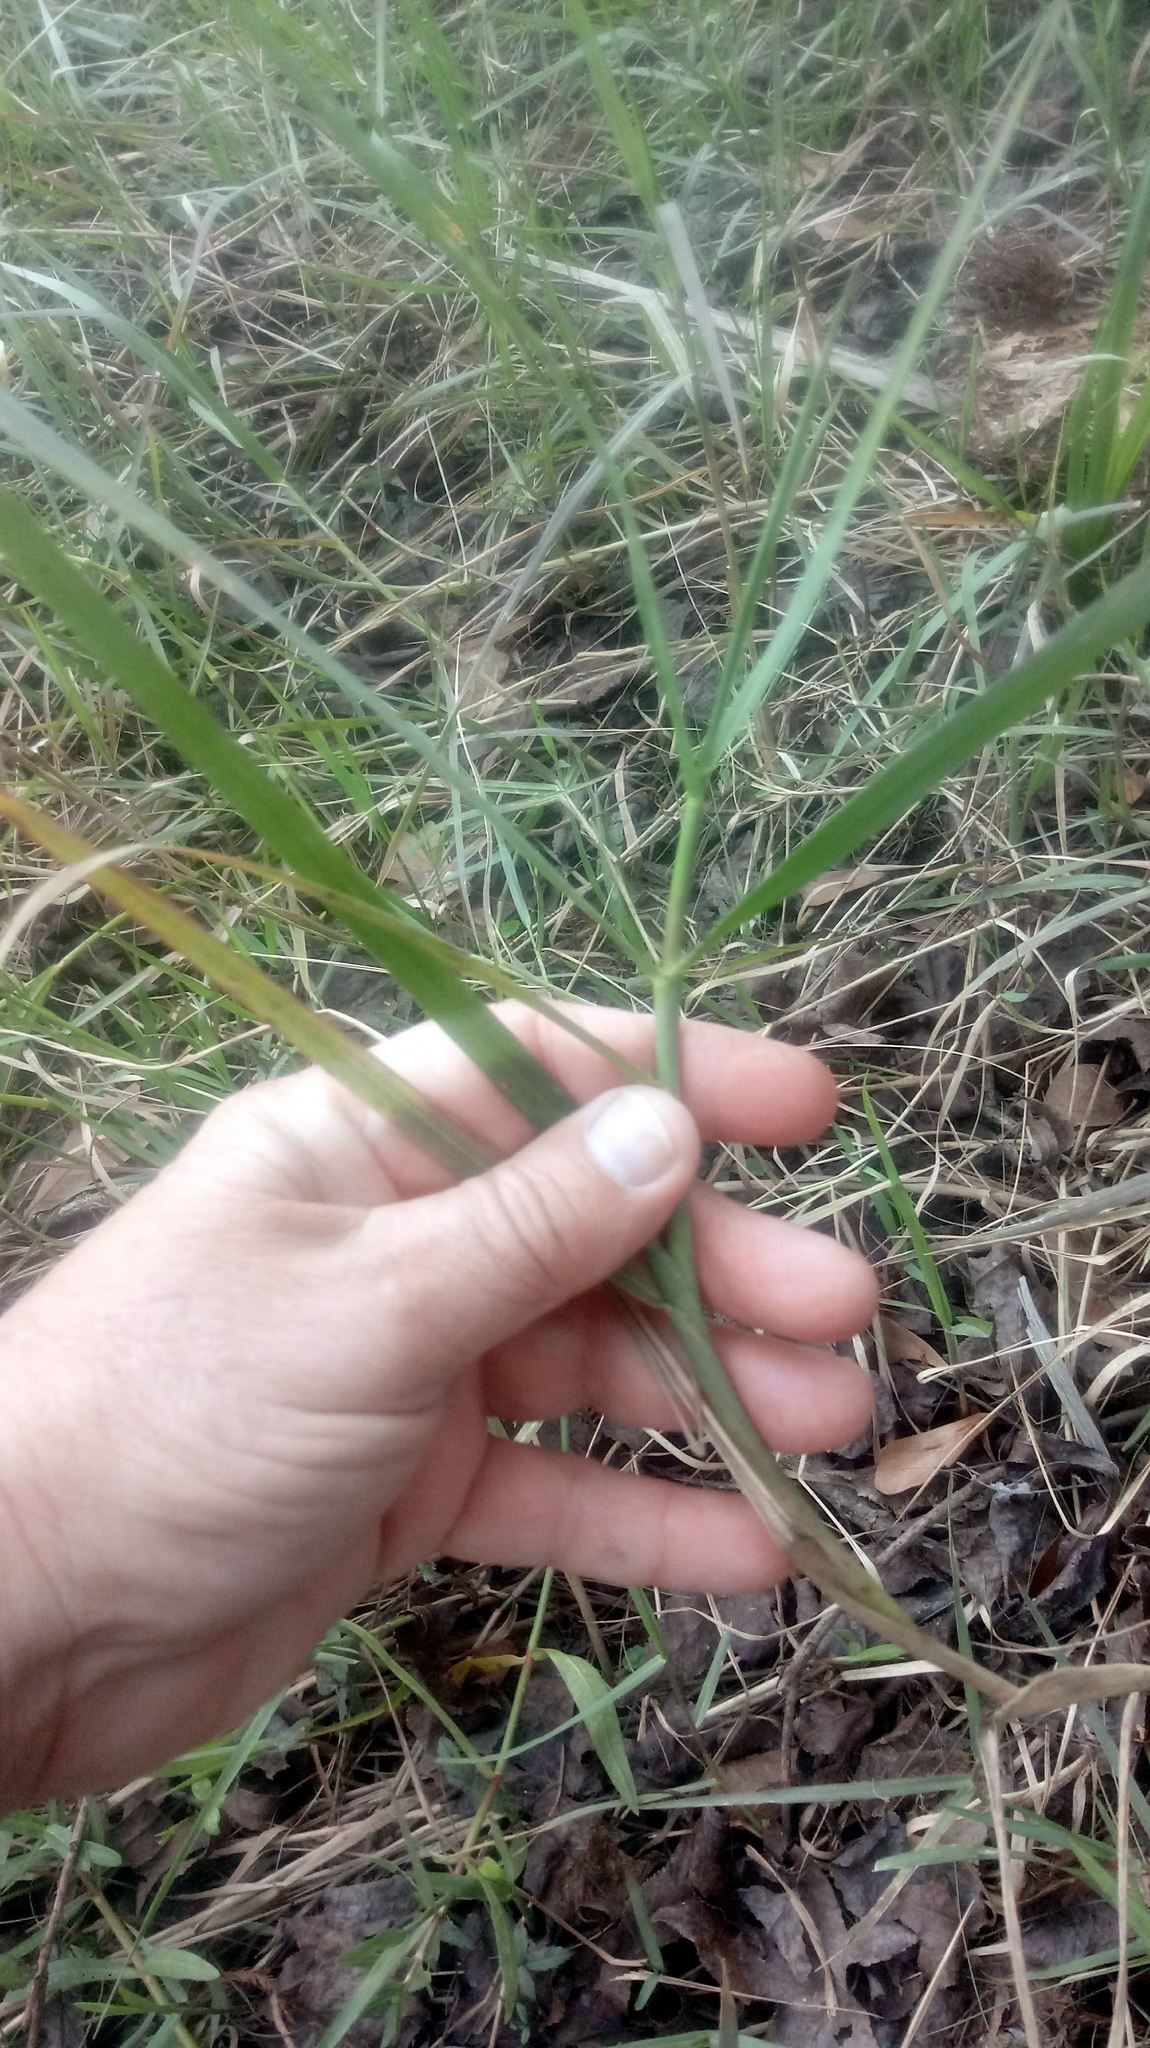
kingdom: Plantae
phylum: Tracheophyta
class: Liliopsida
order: Poales
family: Poaceae
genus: Panicum
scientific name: Panicum repens
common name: Torpedo grass
